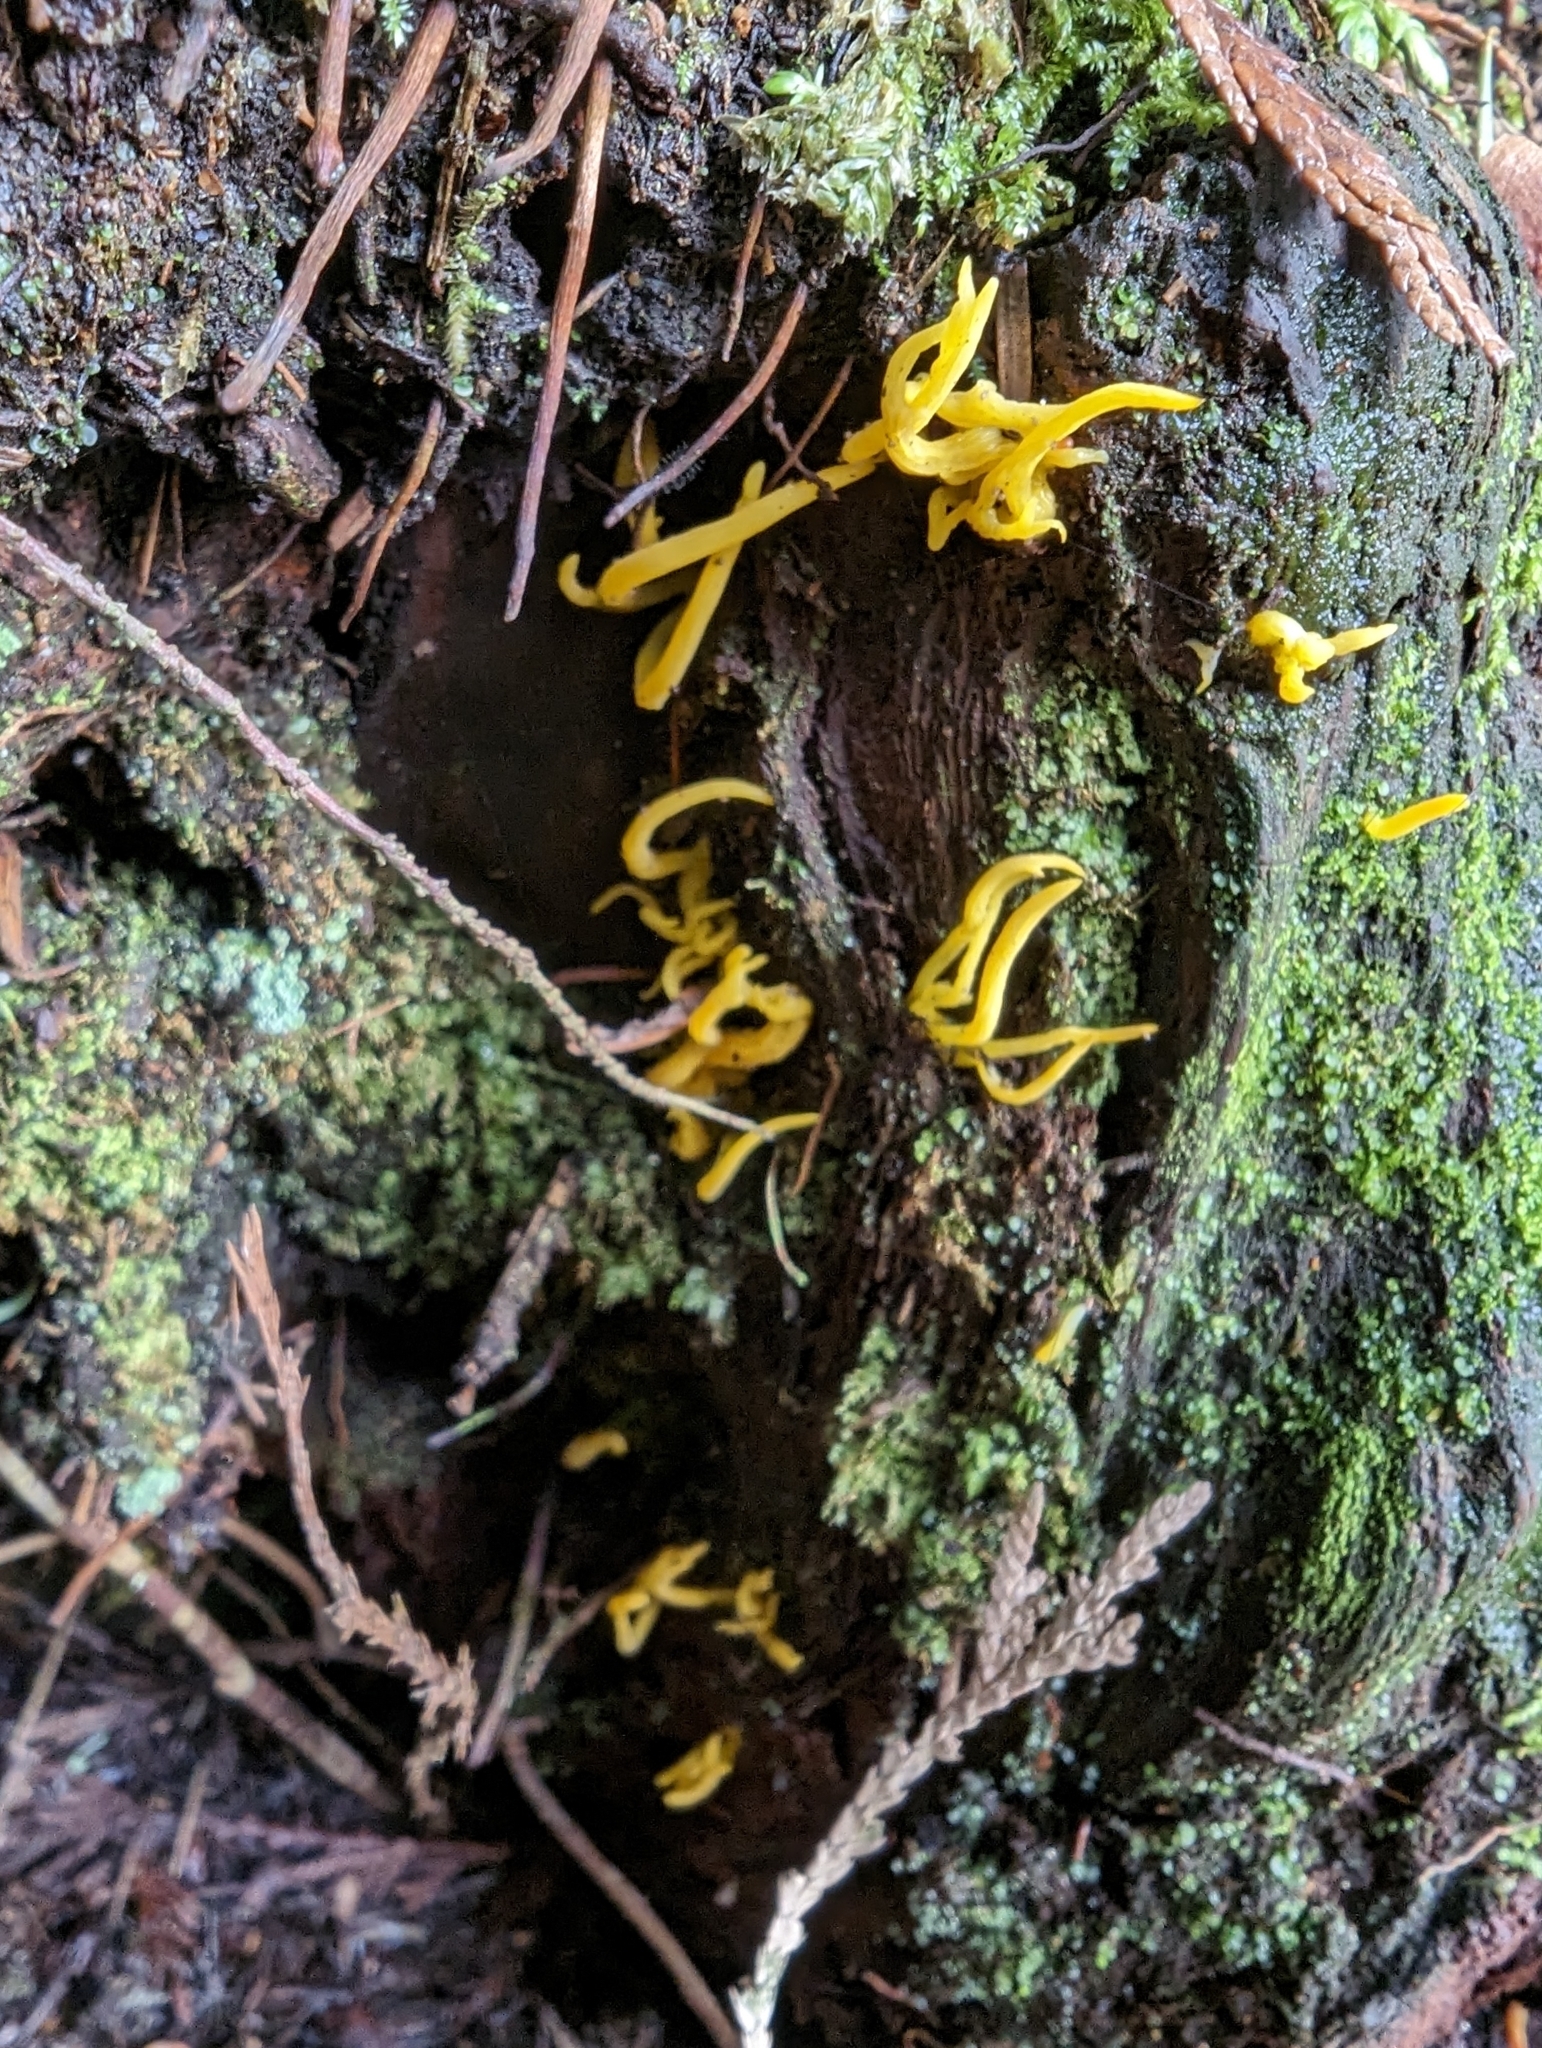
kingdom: Fungi
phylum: Basidiomycota
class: Dacrymycetes
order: Dacrymycetales
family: Dacrymycetaceae
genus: Calocera
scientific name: Calocera cornea
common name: Small stagshorn
